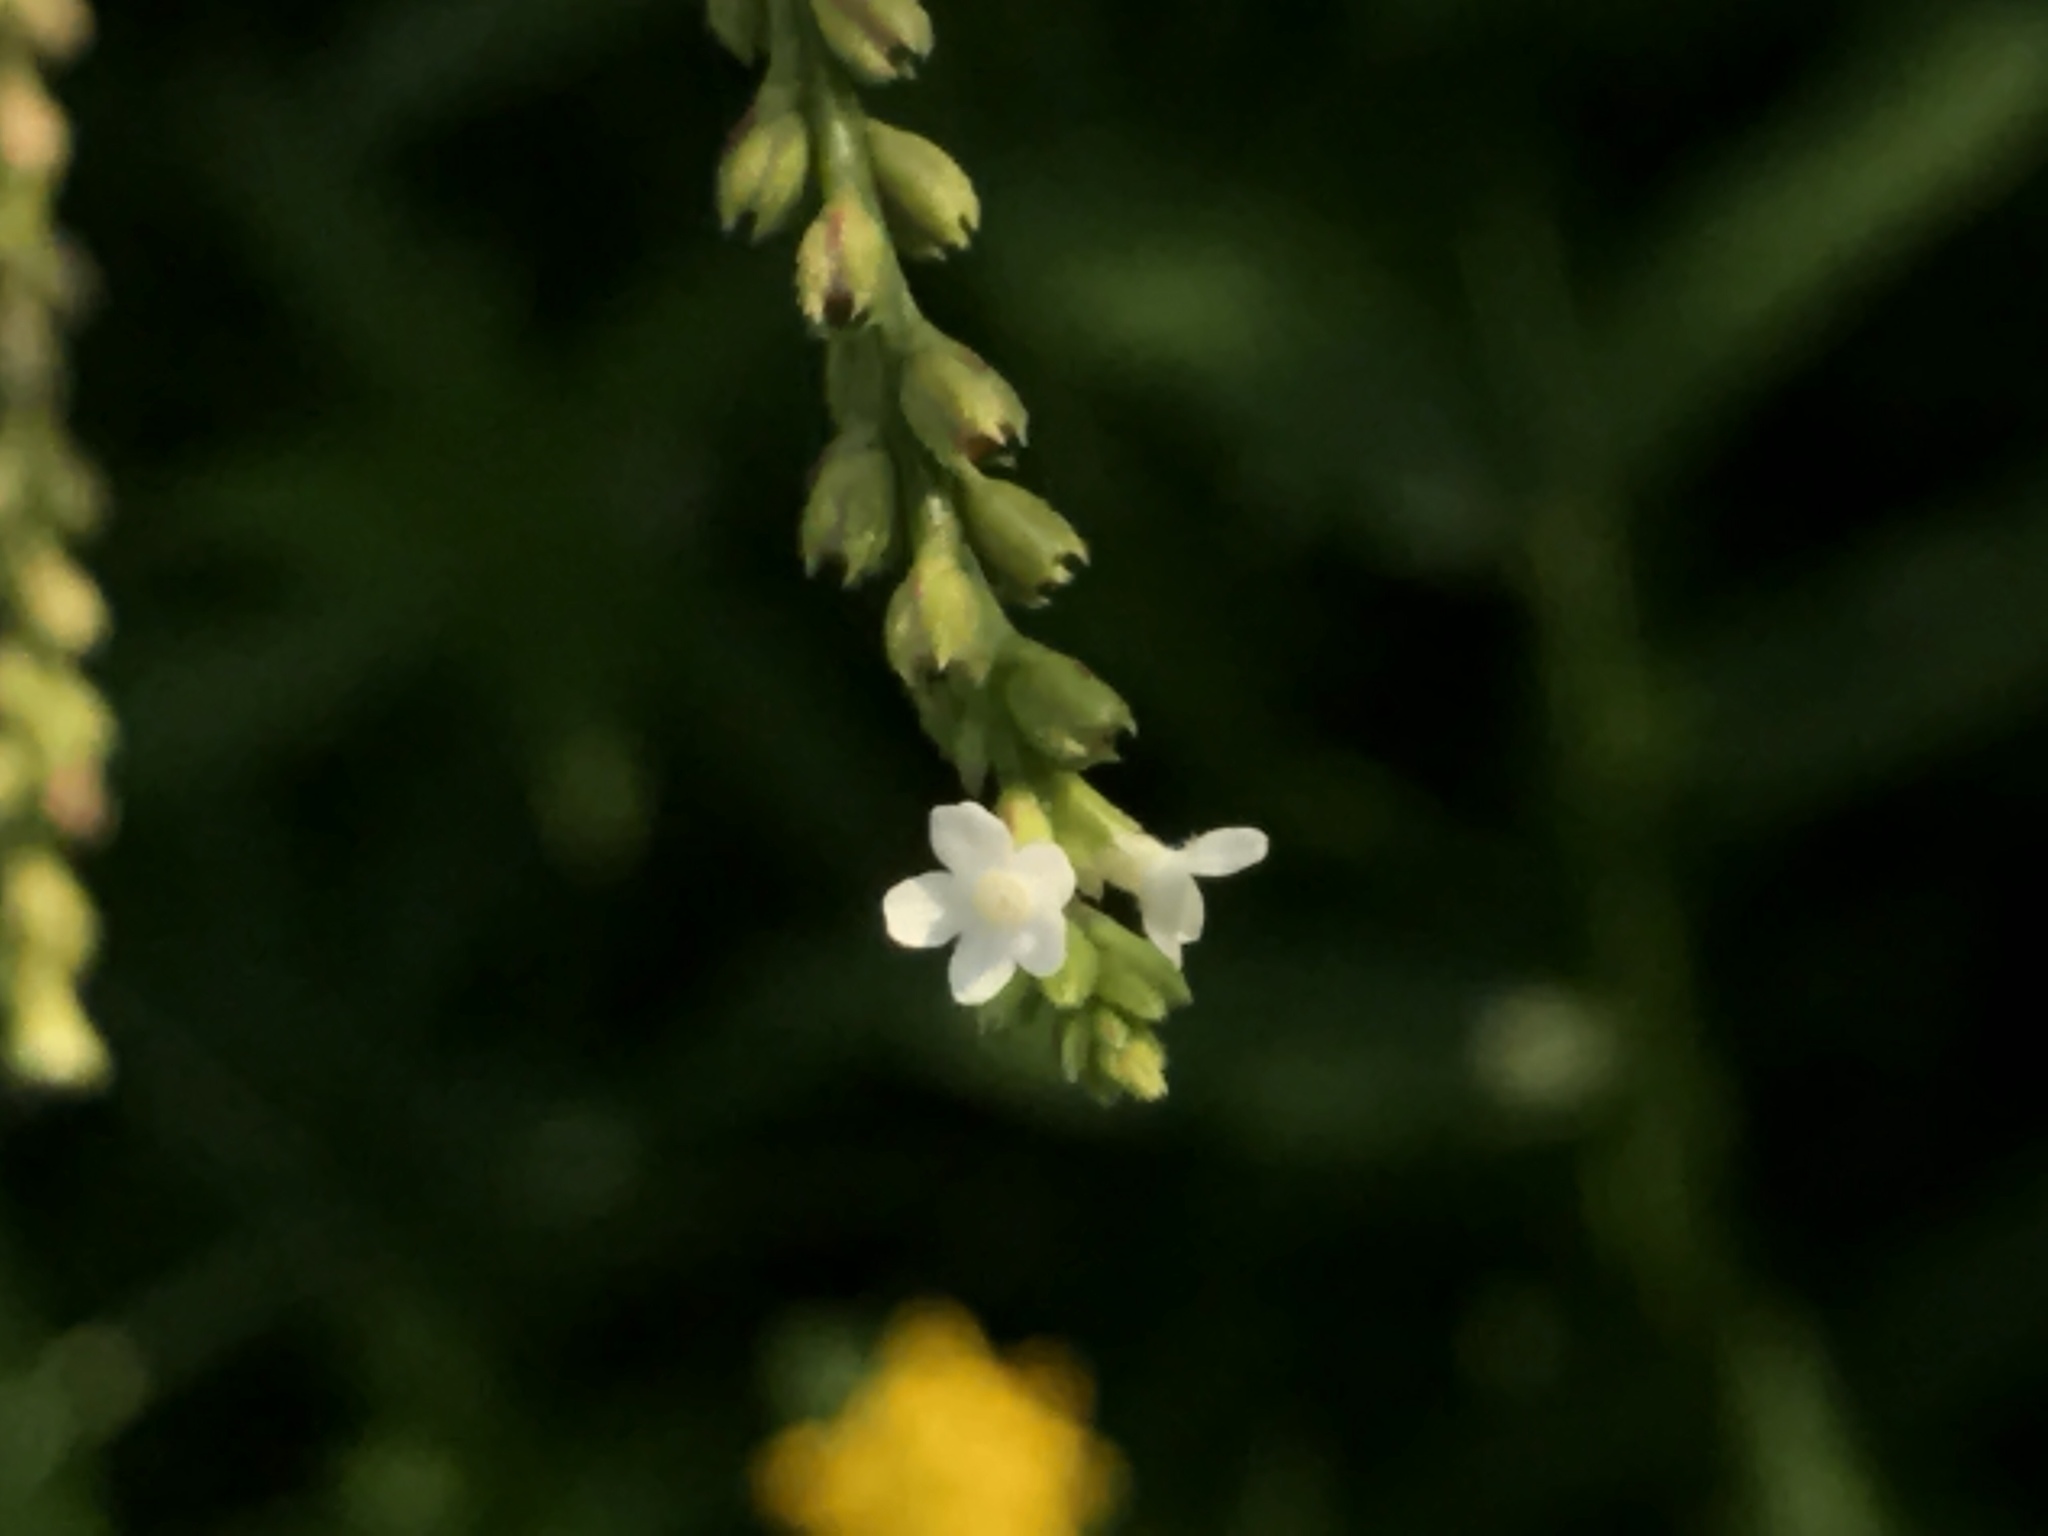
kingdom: Plantae
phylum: Tracheophyta
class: Magnoliopsida
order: Lamiales
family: Verbenaceae
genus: Verbena
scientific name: Verbena urticifolia
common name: Nettle-leaved vervain
